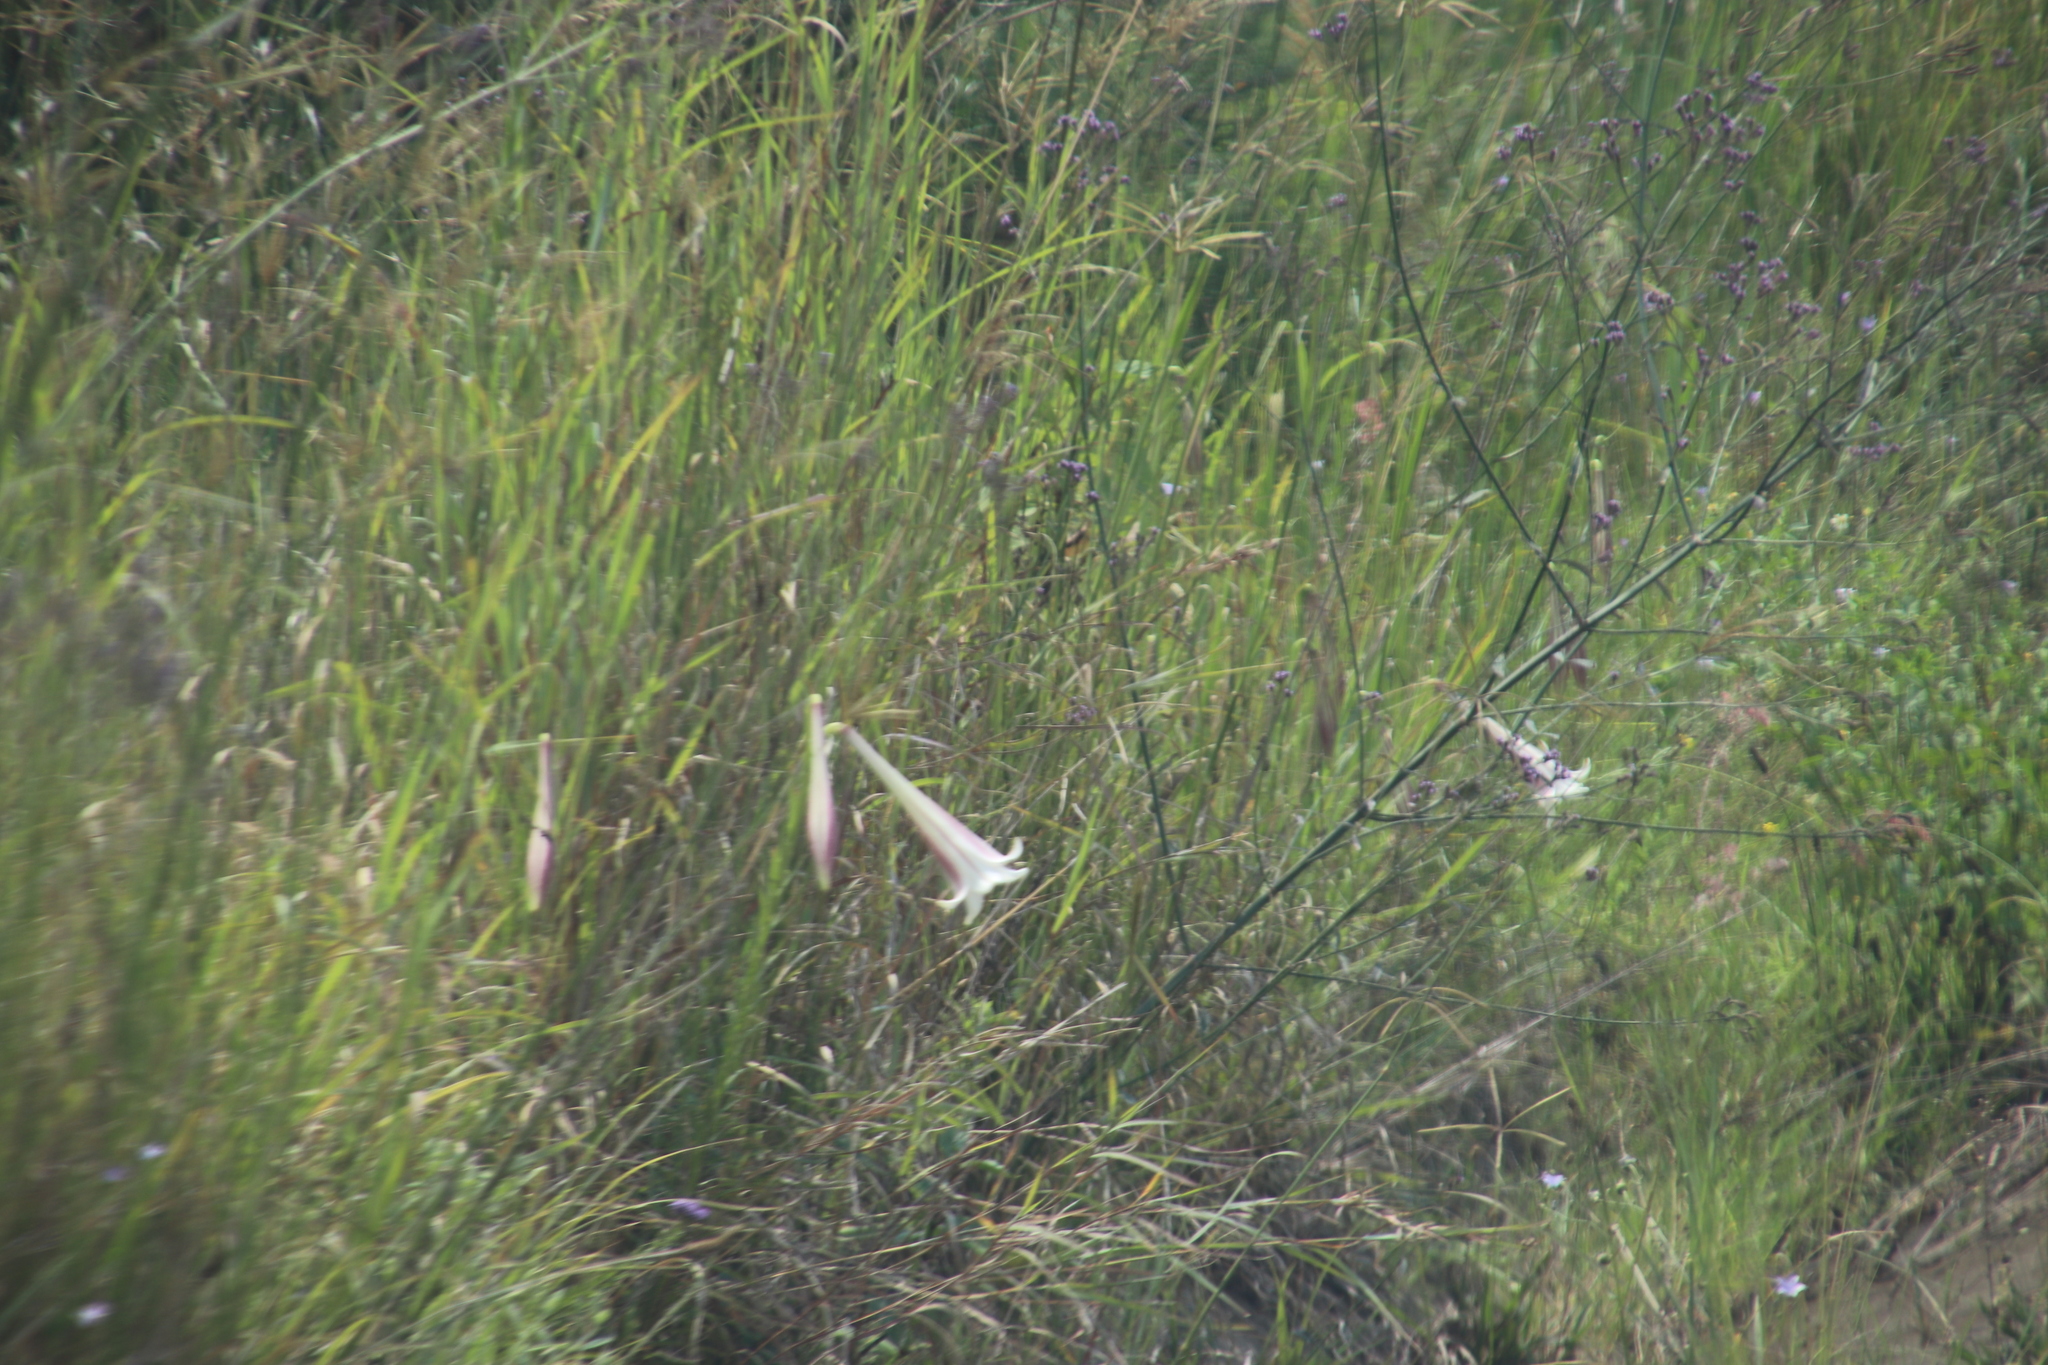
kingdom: Plantae
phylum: Tracheophyta
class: Liliopsida
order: Liliales
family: Liliaceae
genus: Lilium
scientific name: Lilium formosanum
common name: Formosa lily
